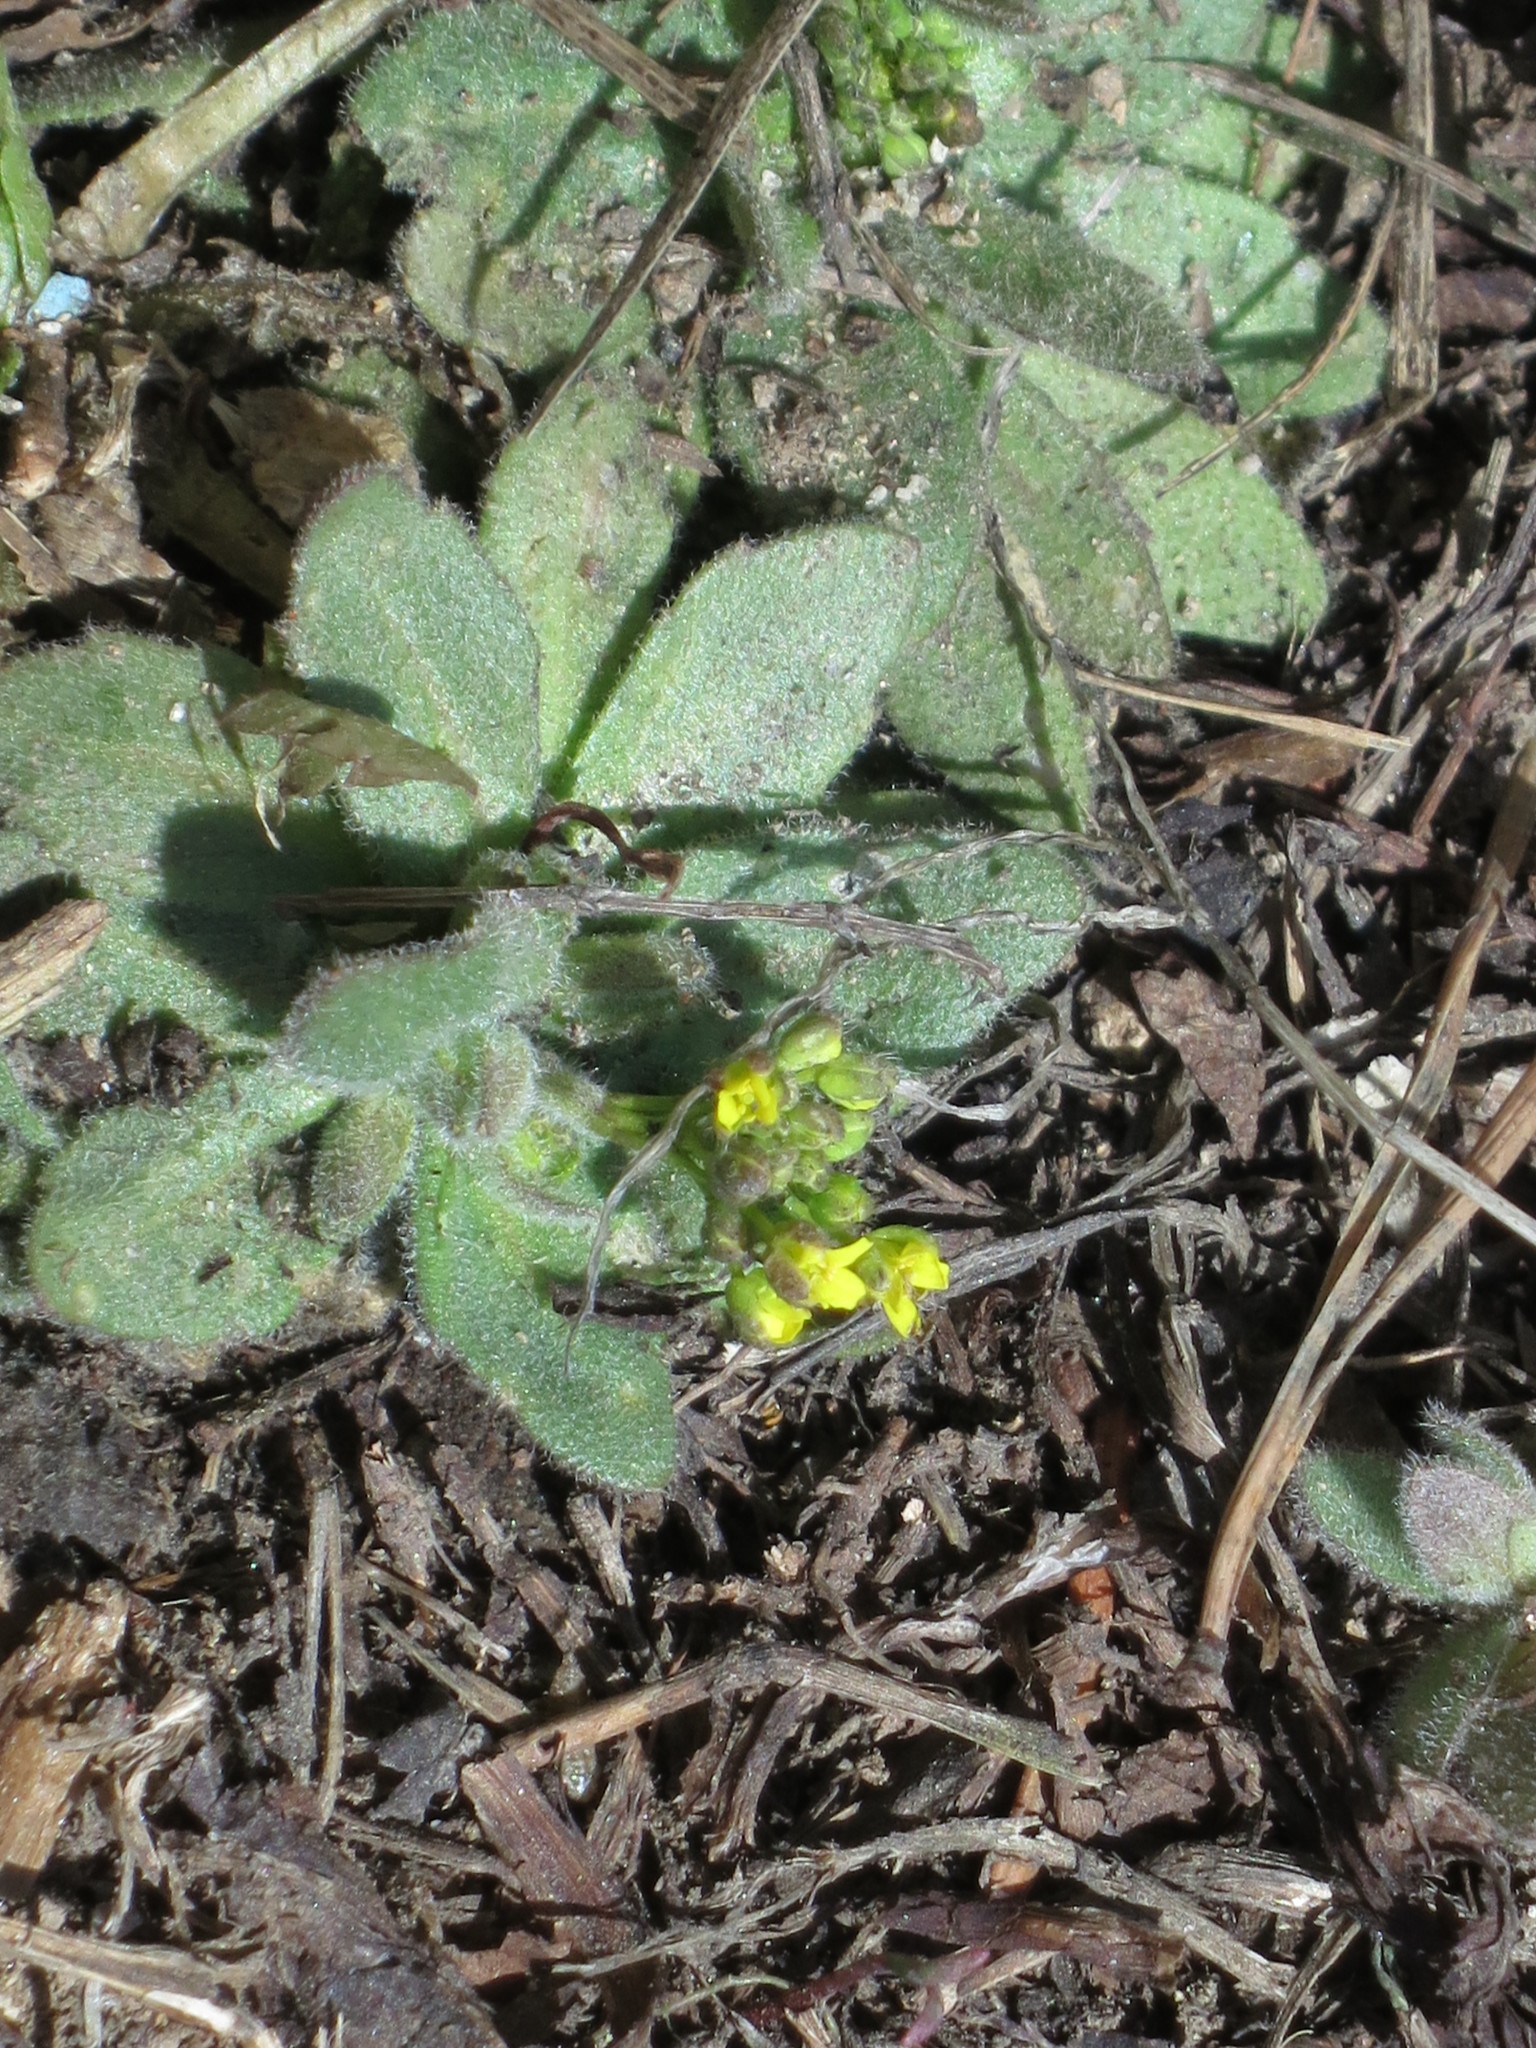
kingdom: Plantae
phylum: Tracheophyta
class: Magnoliopsida
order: Brassicales
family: Brassicaceae
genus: Draba
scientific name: Draba nemorosa
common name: Wood whitlow-grass
